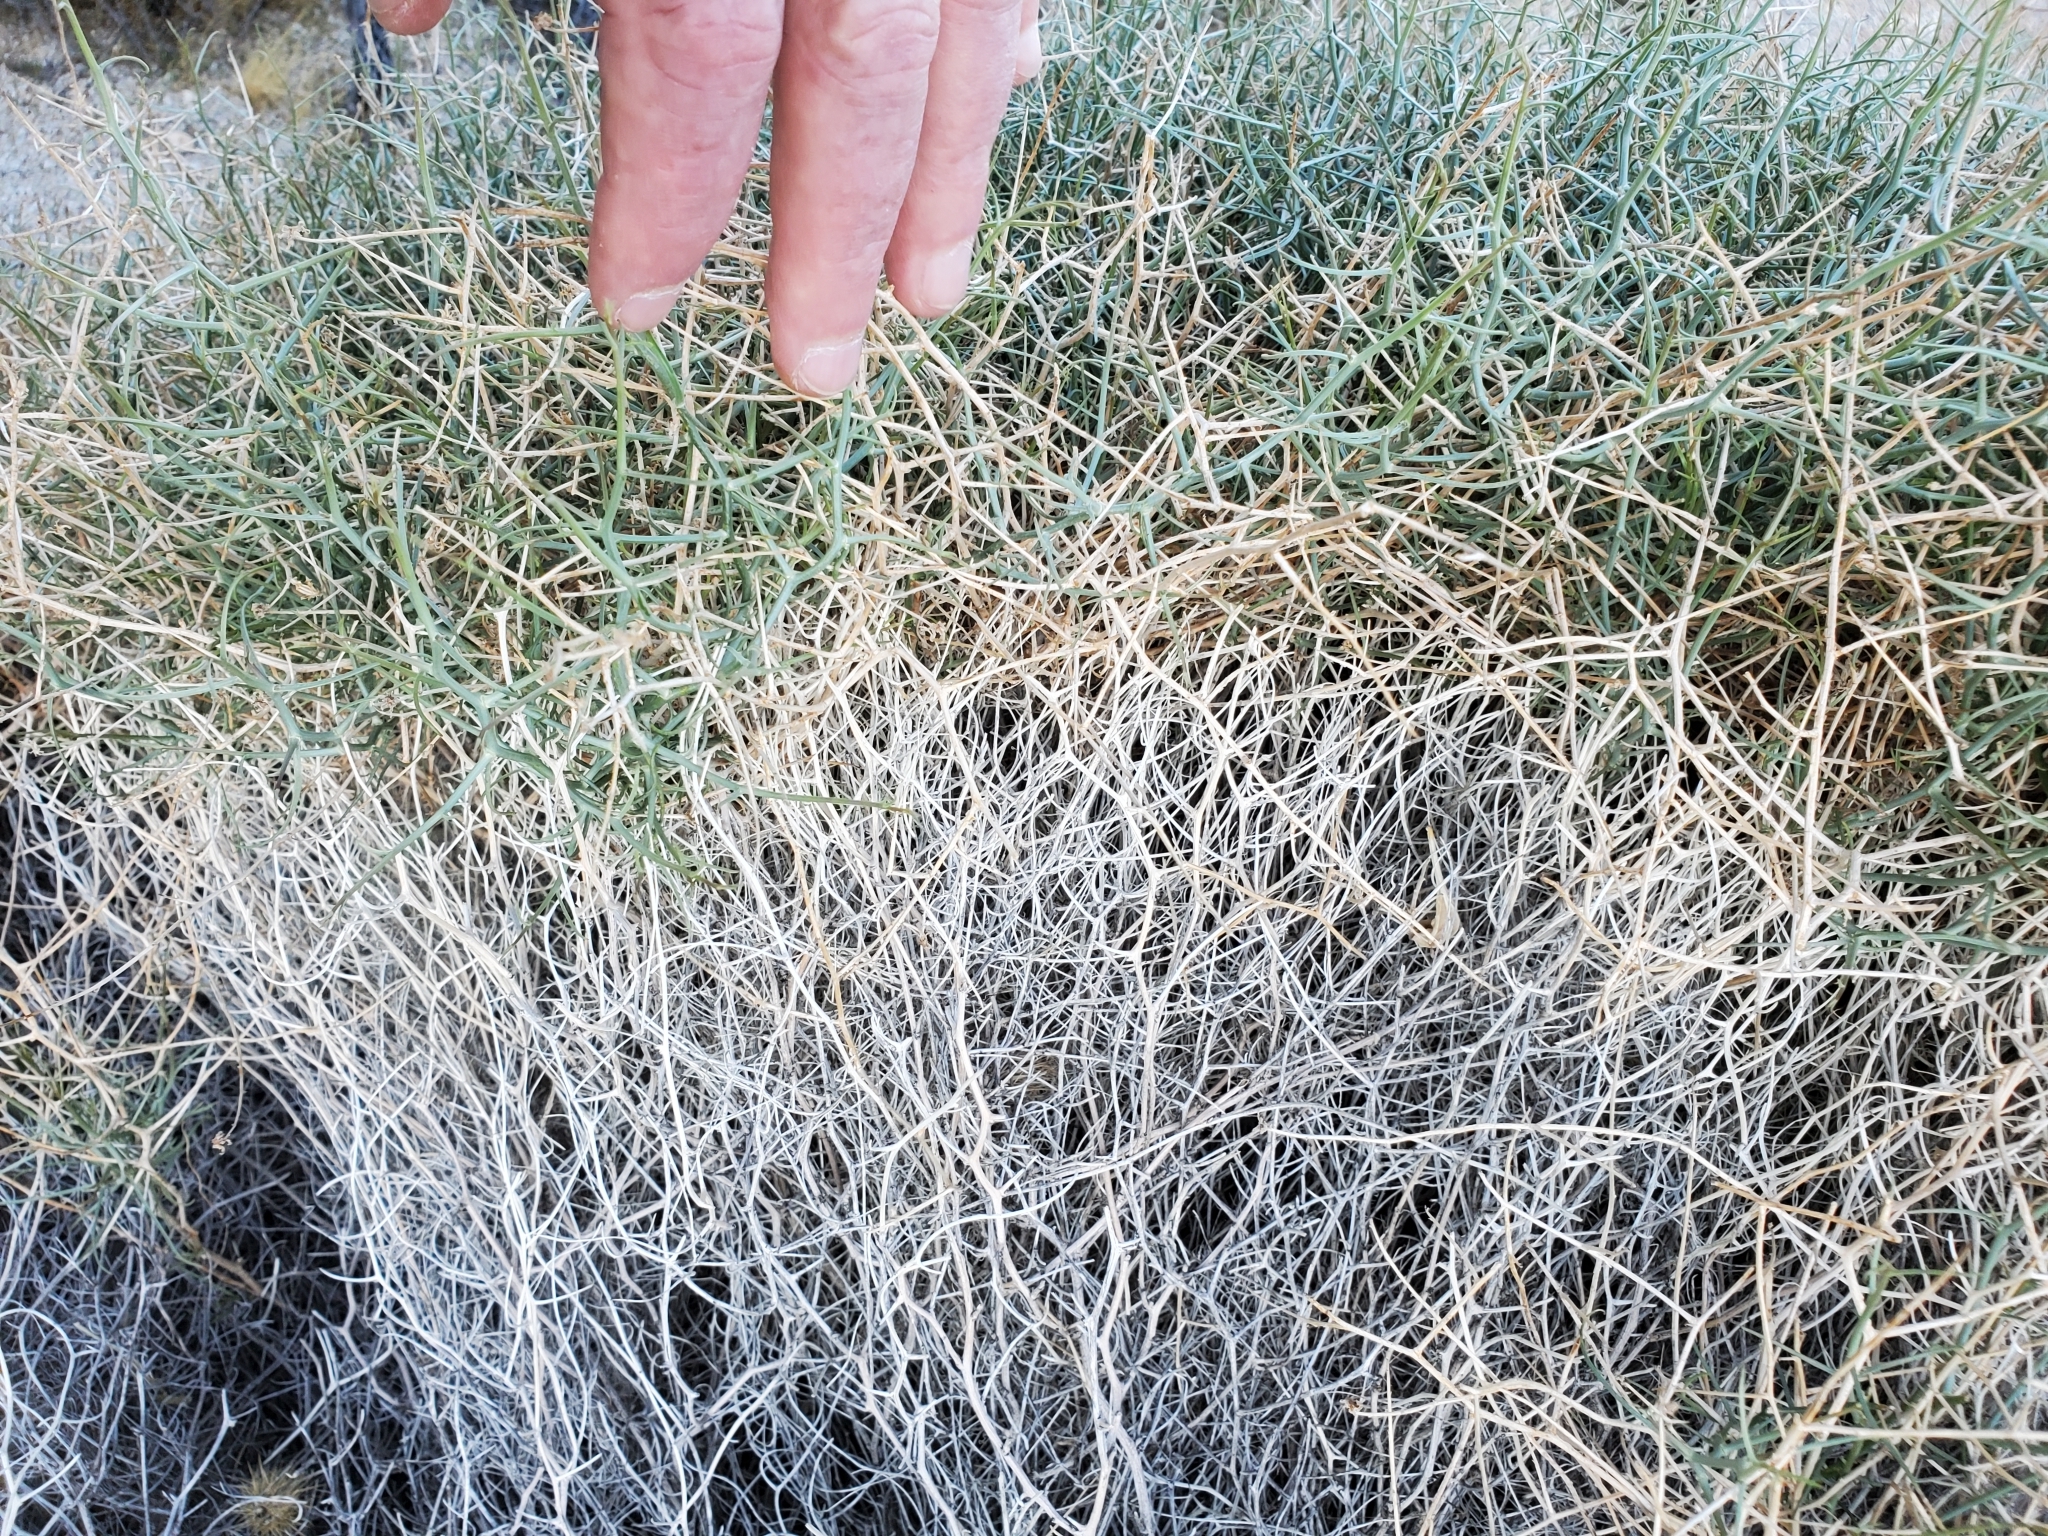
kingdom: Plantae
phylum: Tracheophyta
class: Magnoliopsida
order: Asterales
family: Asteraceae
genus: Stephanomeria
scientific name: Stephanomeria pauciflora
